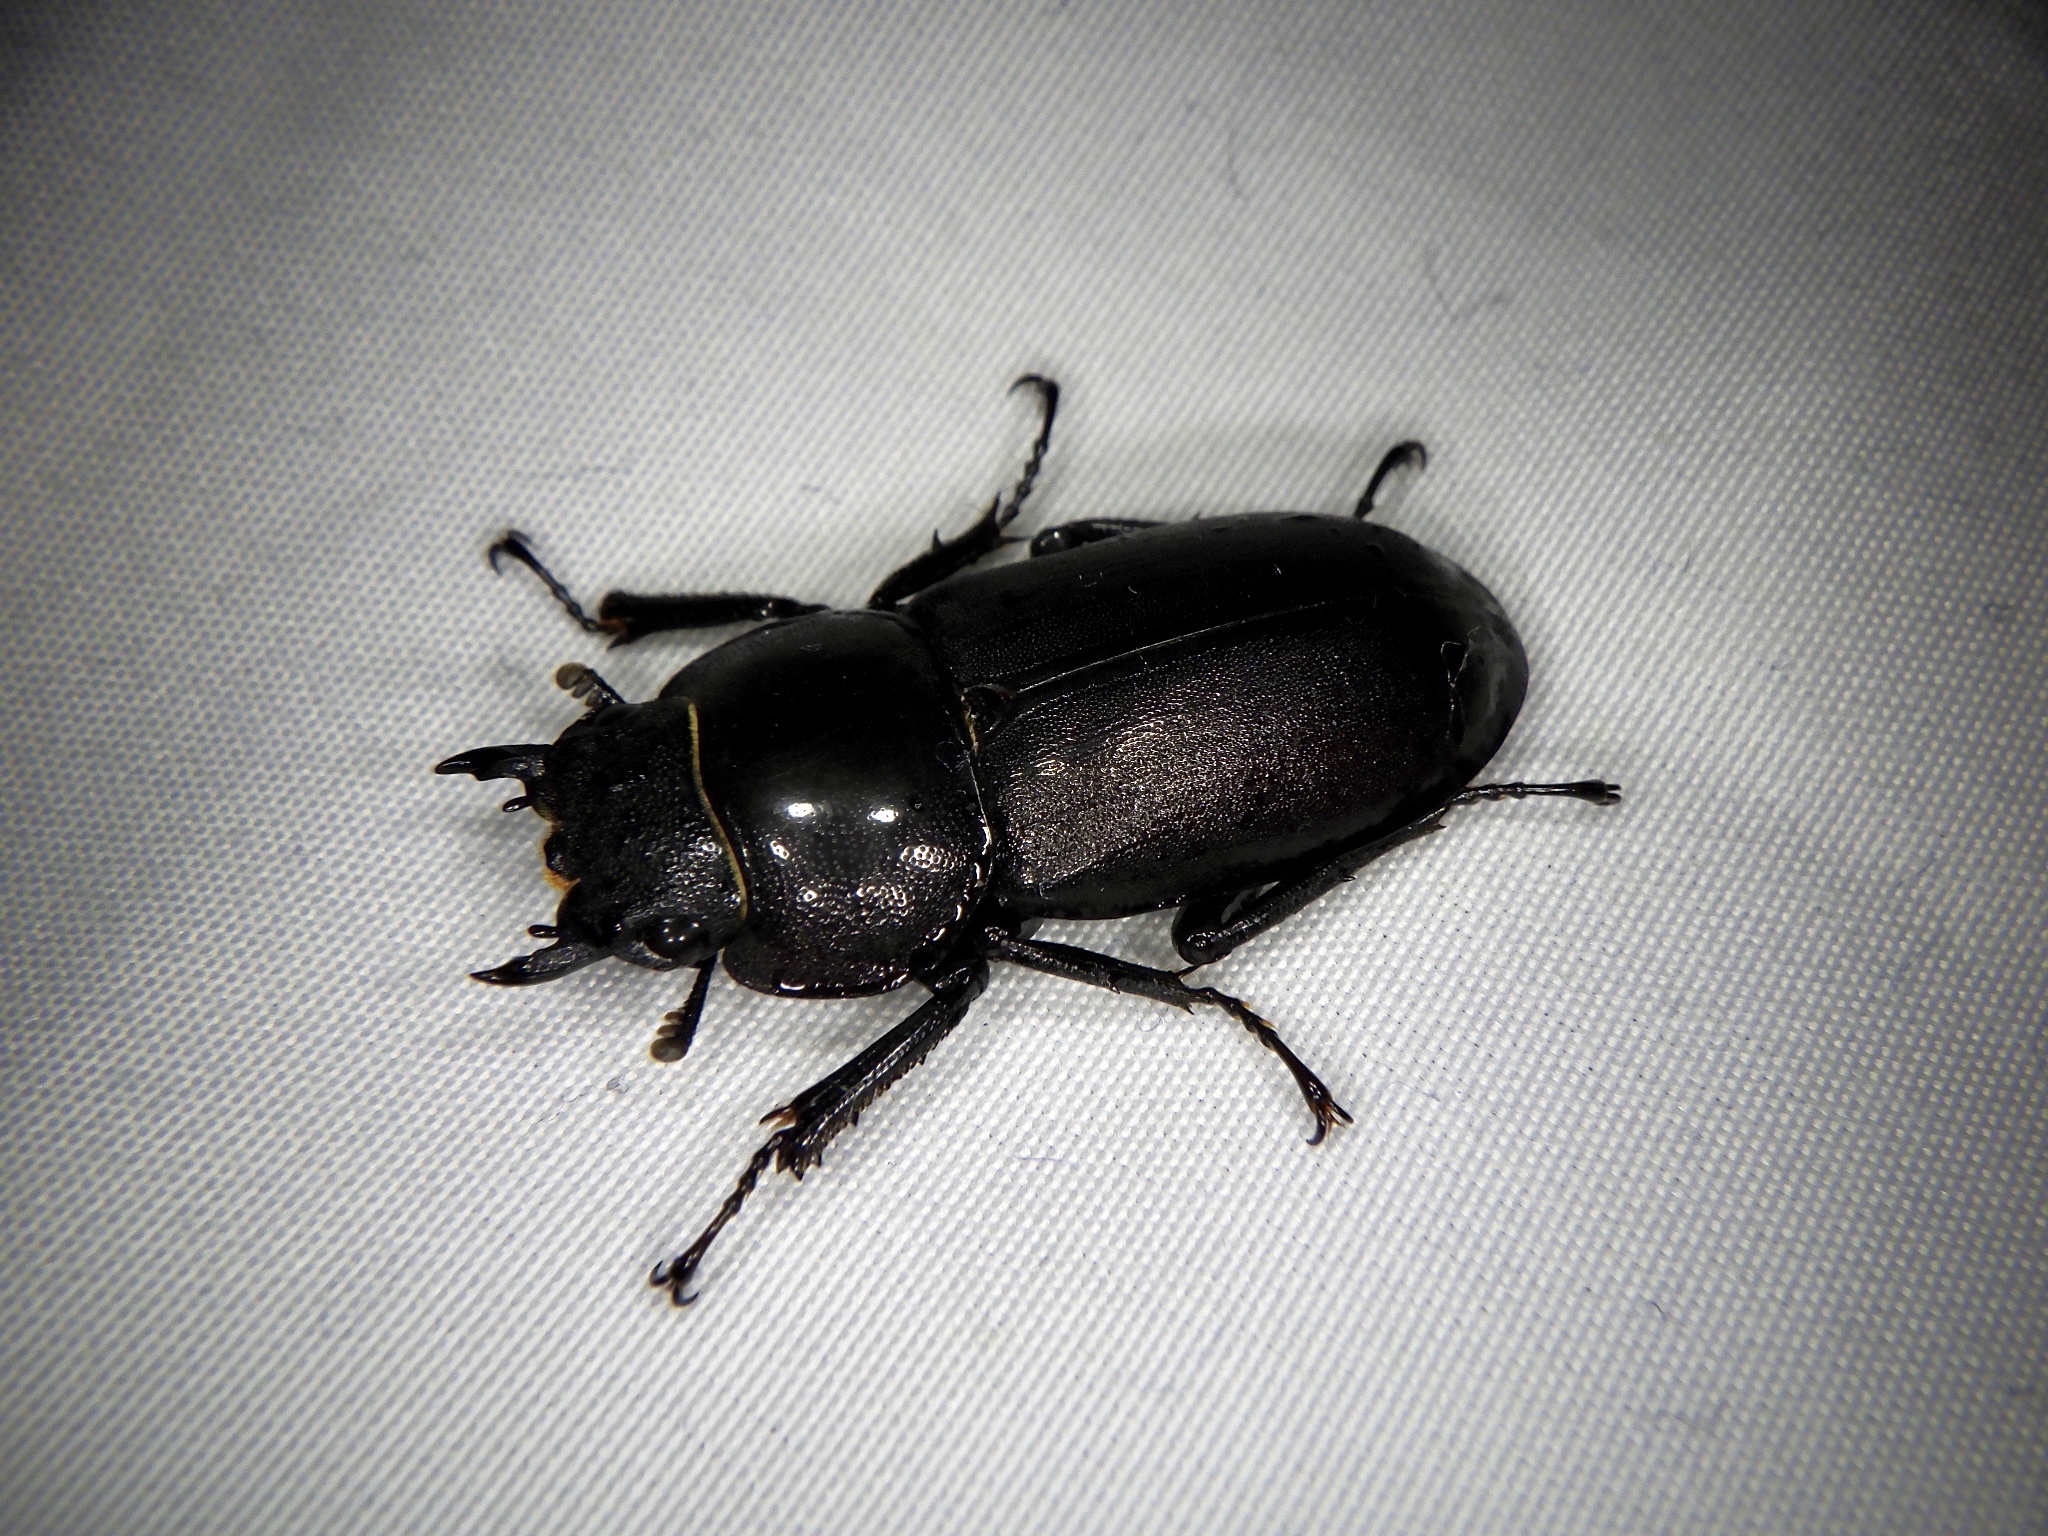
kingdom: Animalia
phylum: Arthropoda
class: Insecta
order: Coleoptera
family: Lucanidae
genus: Dorcus
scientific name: Dorcus rectus
